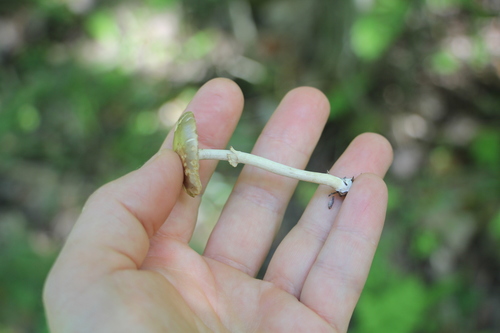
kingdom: Fungi
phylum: Basidiomycota
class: Agaricomycetes
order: Agaricales
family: Strophariaceae
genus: Agrocybe
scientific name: Agrocybe praecox
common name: Spring fieldcap
